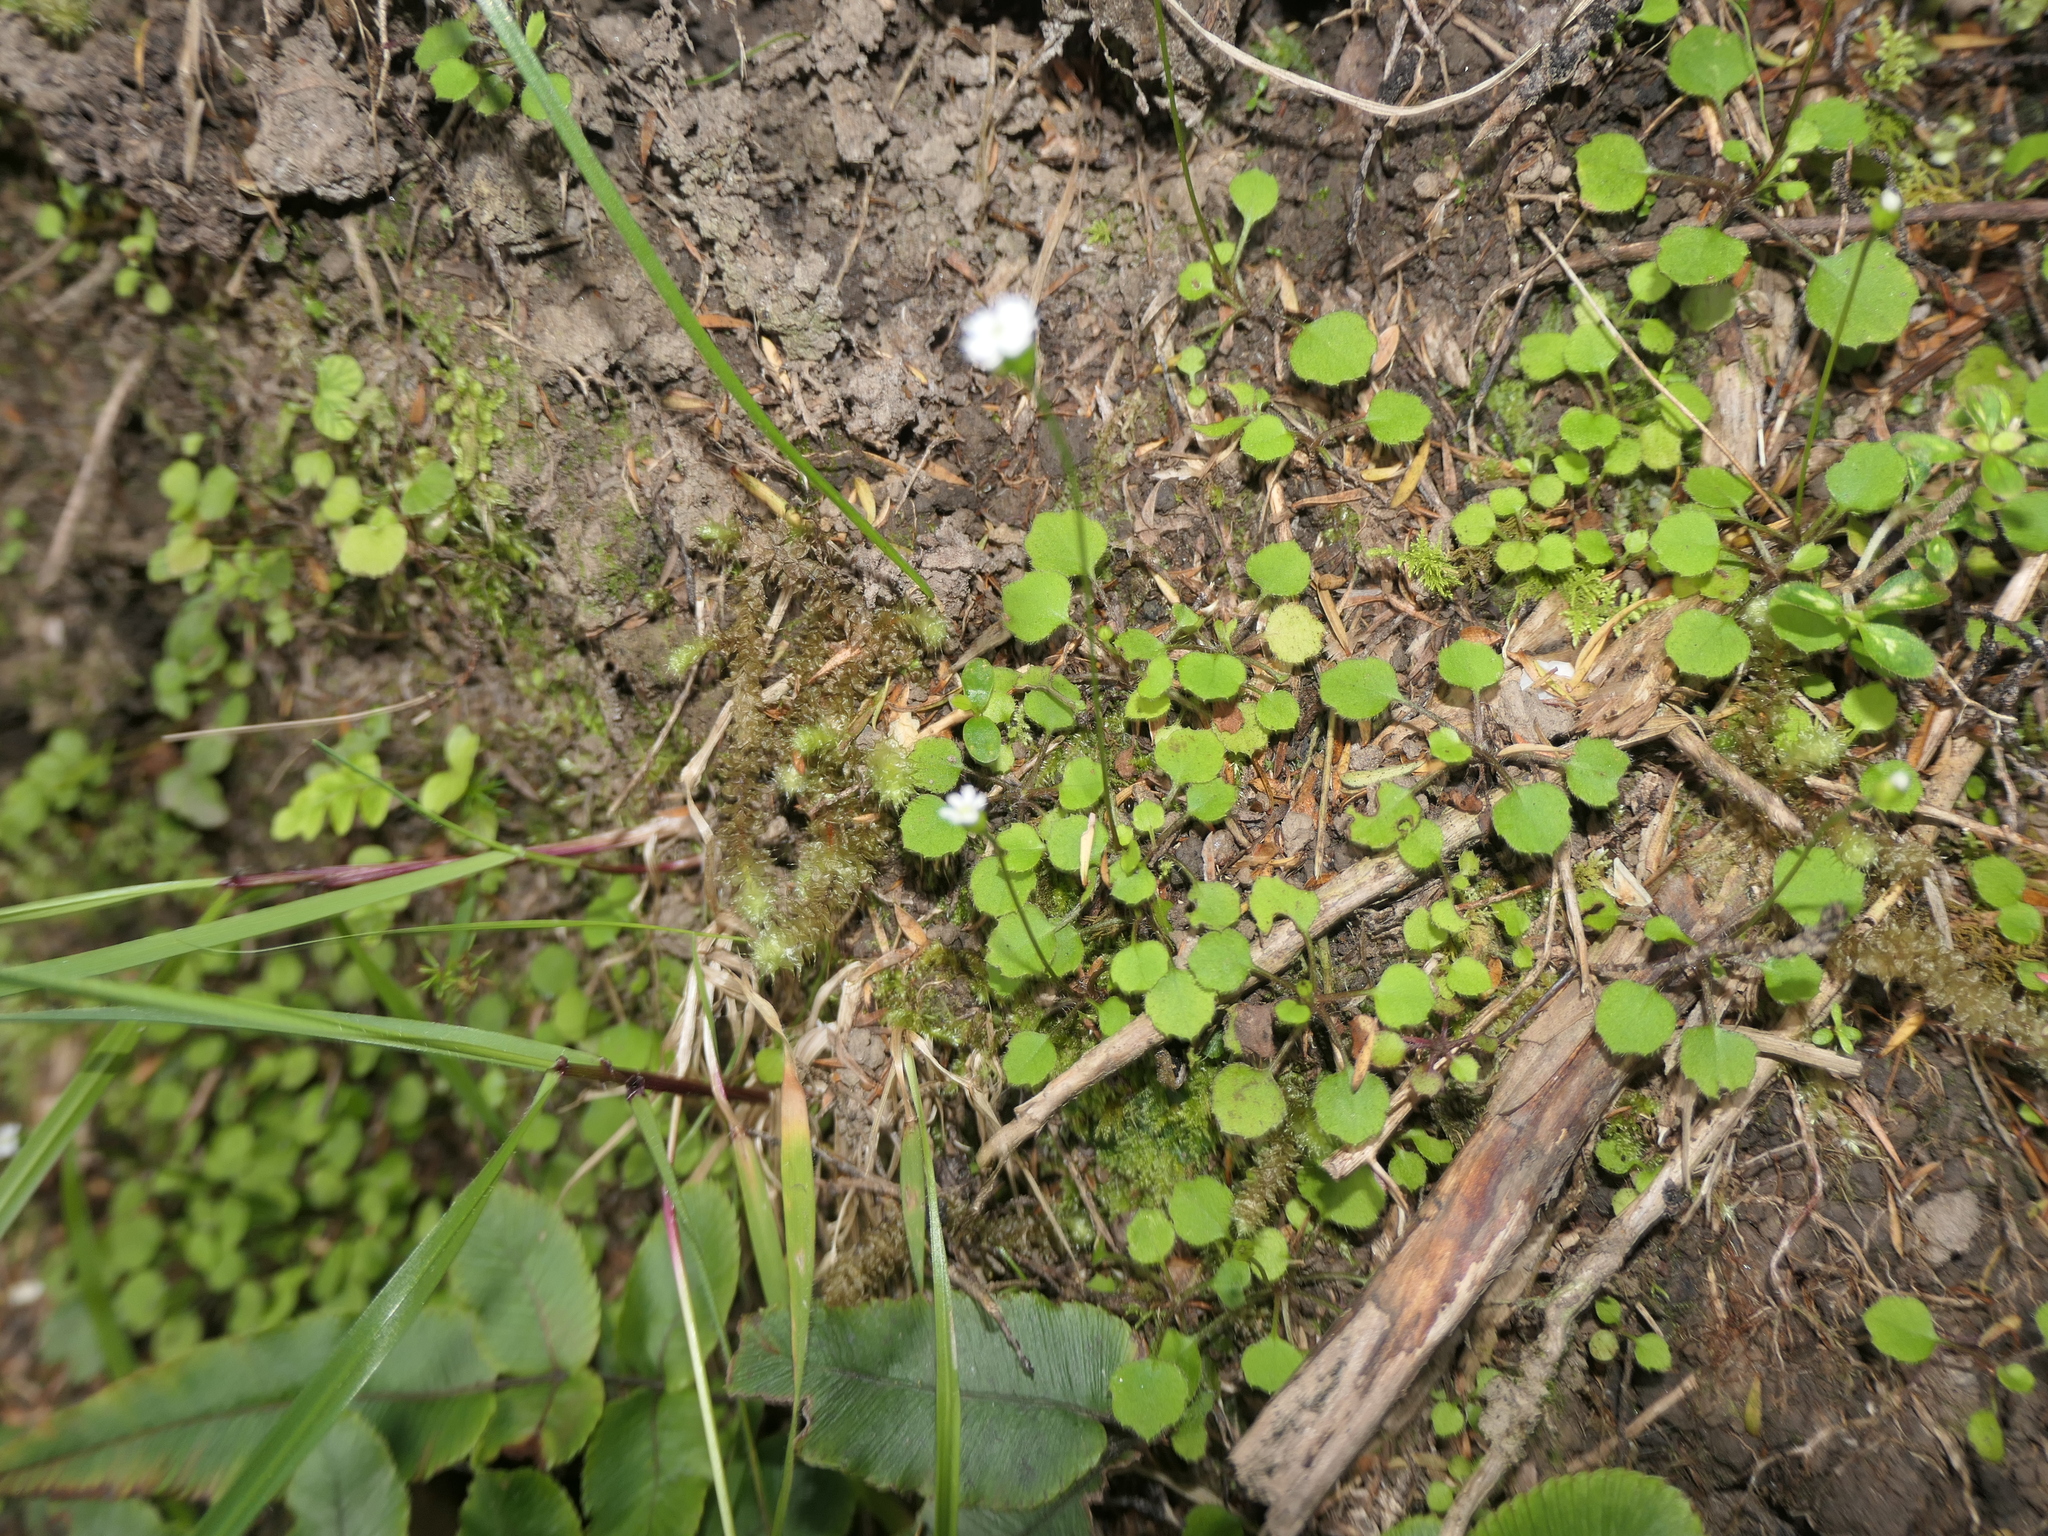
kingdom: Plantae
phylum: Tracheophyta
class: Magnoliopsida
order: Asterales
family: Asteraceae
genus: Lagenophora
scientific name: Lagenophora strangulata
